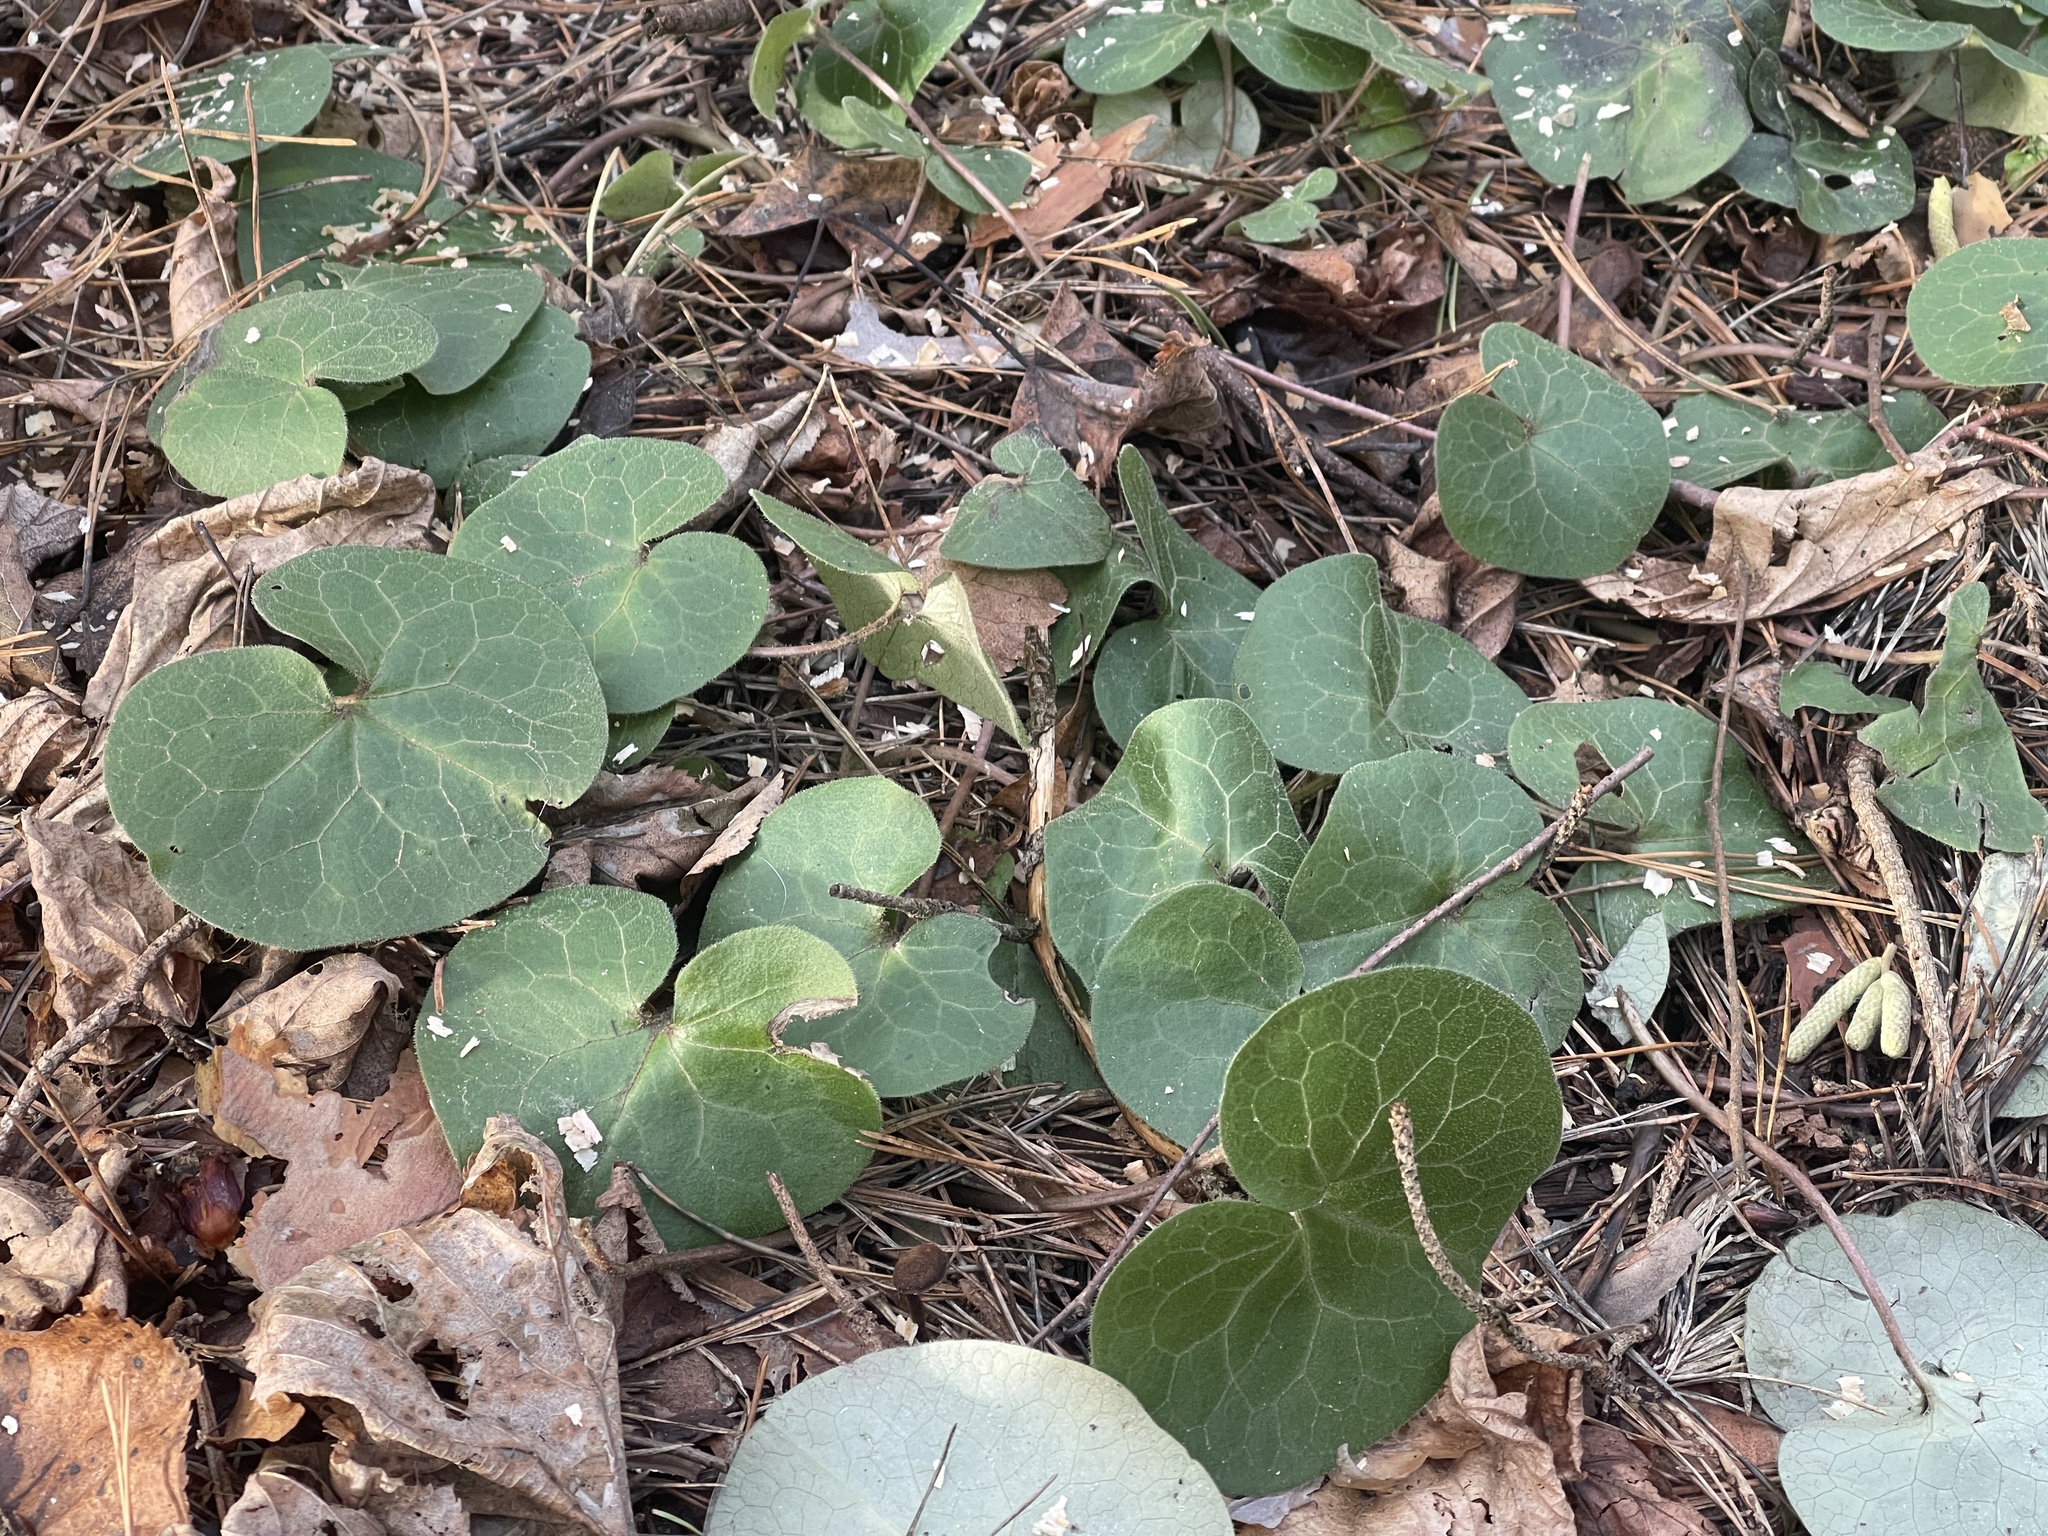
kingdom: Plantae
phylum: Tracheophyta
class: Magnoliopsida
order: Piperales
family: Aristolochiaceae
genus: Asarum
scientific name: Asarum europaeum
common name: Asarabacca
